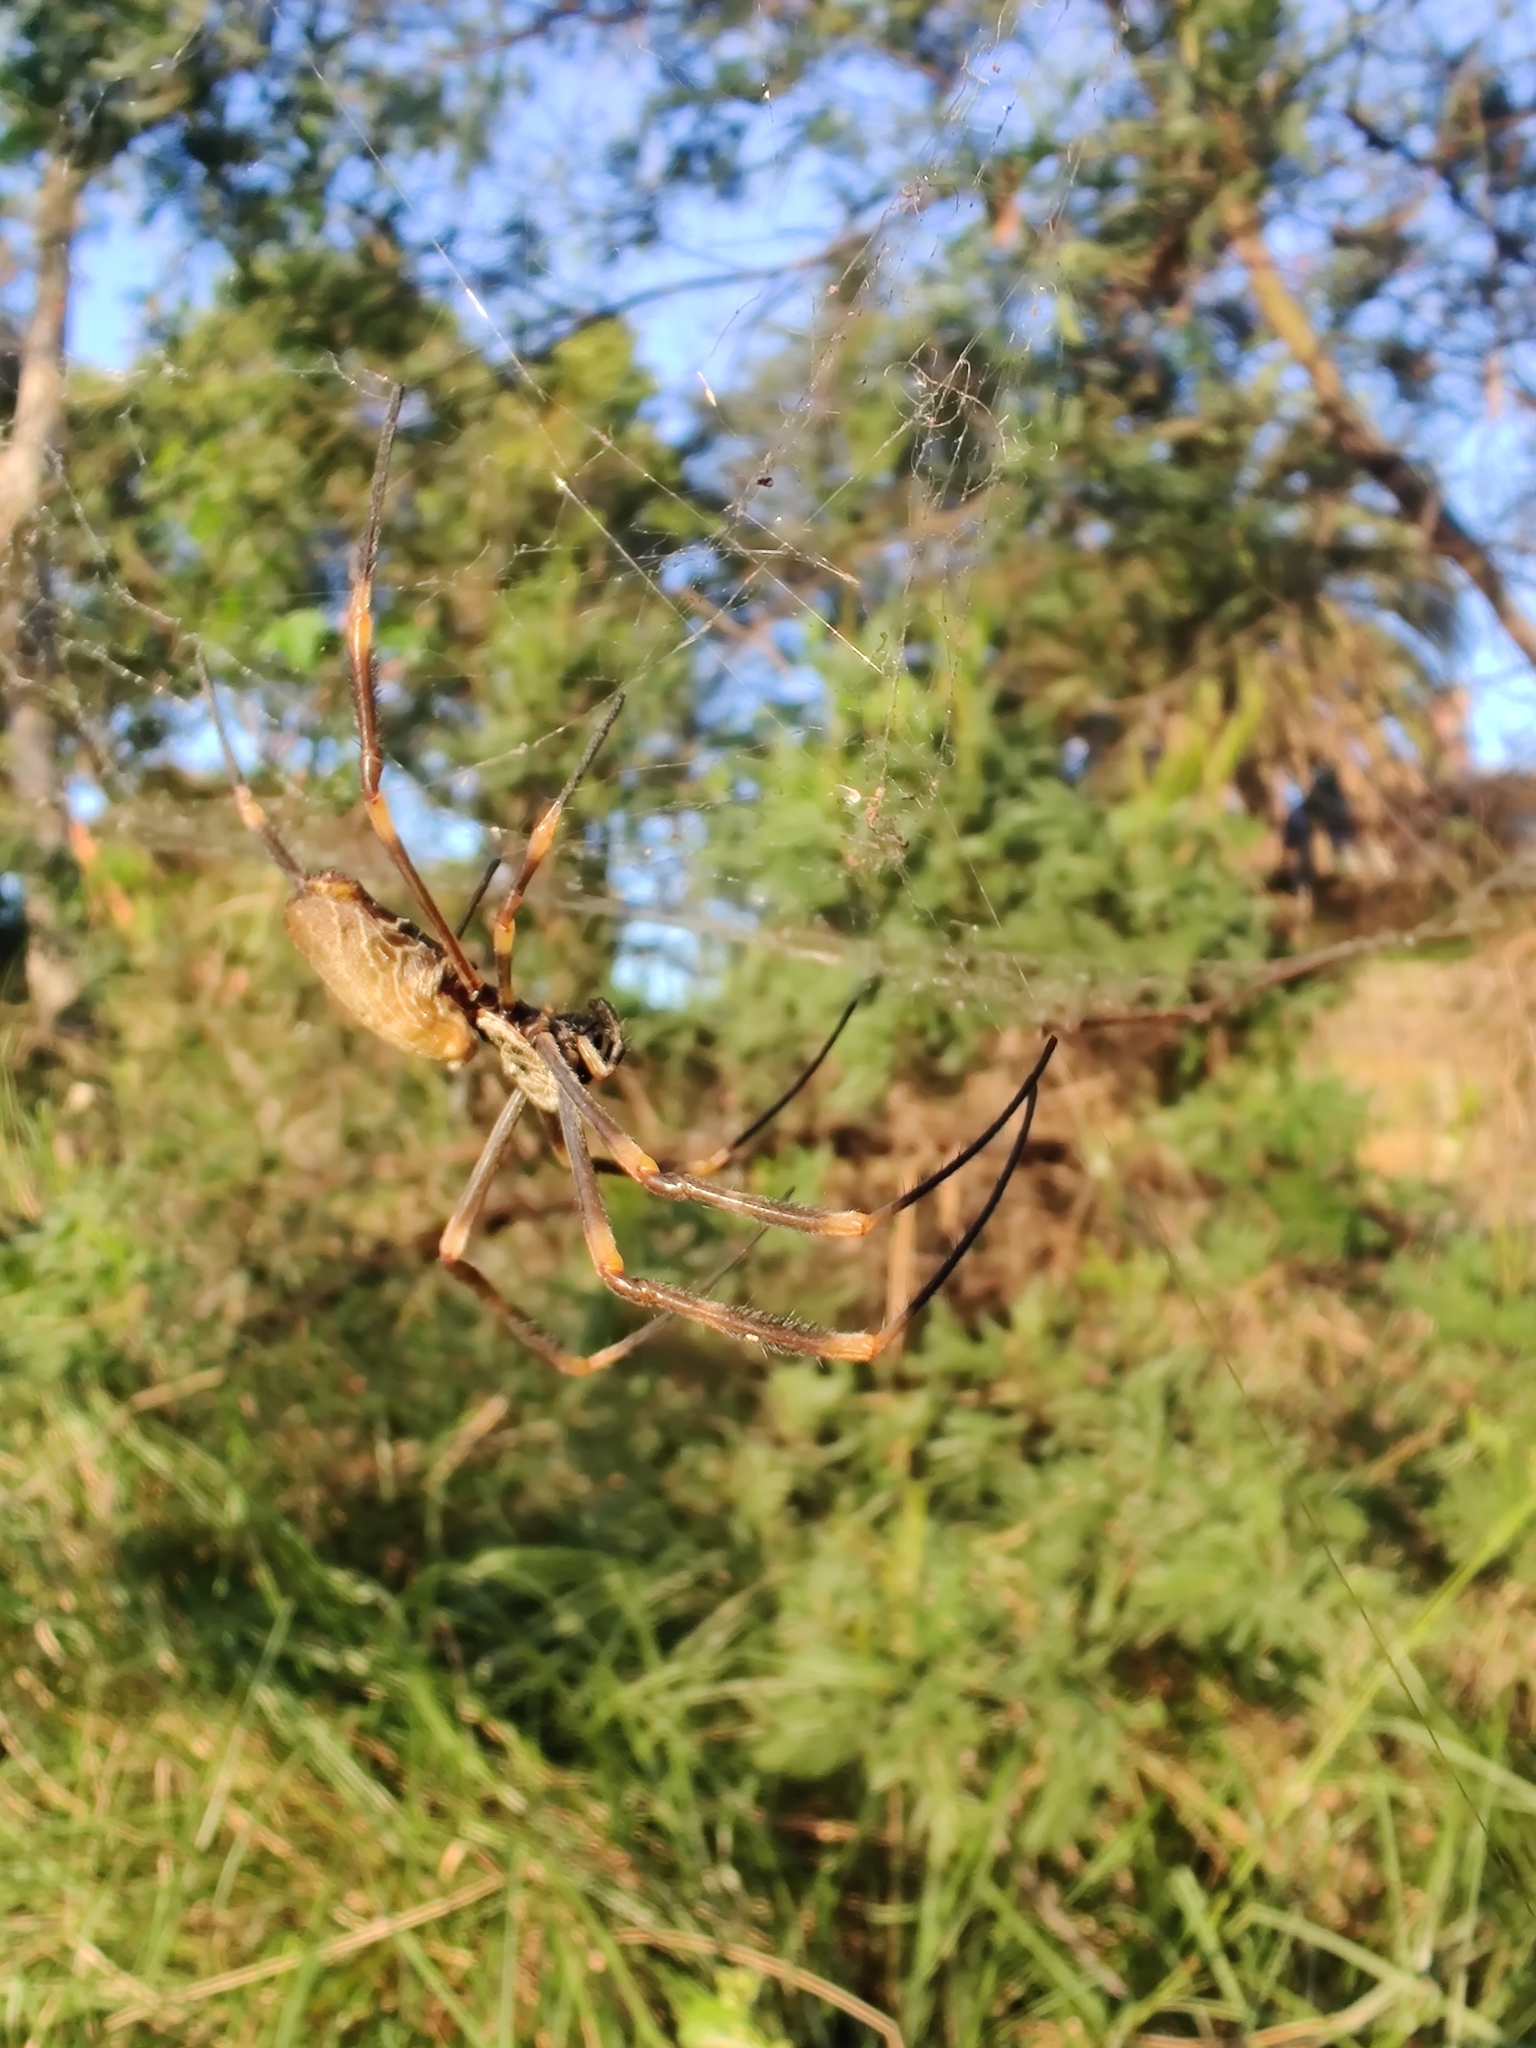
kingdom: Animalia
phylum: Arthropoda
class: Arachnida
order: Araneae
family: Araneidae
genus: Trichonephila
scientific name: Trichonephila plumipes
